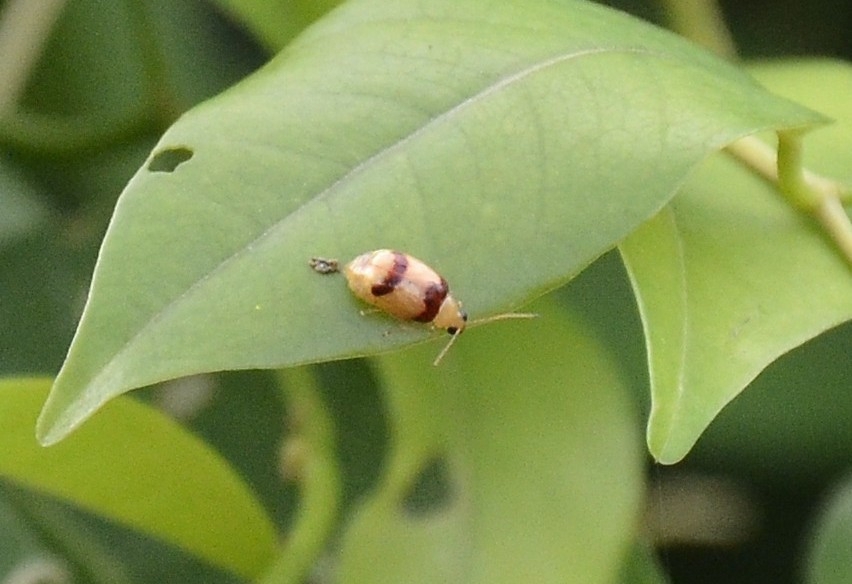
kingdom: Animalia
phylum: Arthropoda
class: Insecta
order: Coleoptera
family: Chrysomelidae
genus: Monolepta
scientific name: Monolepta
